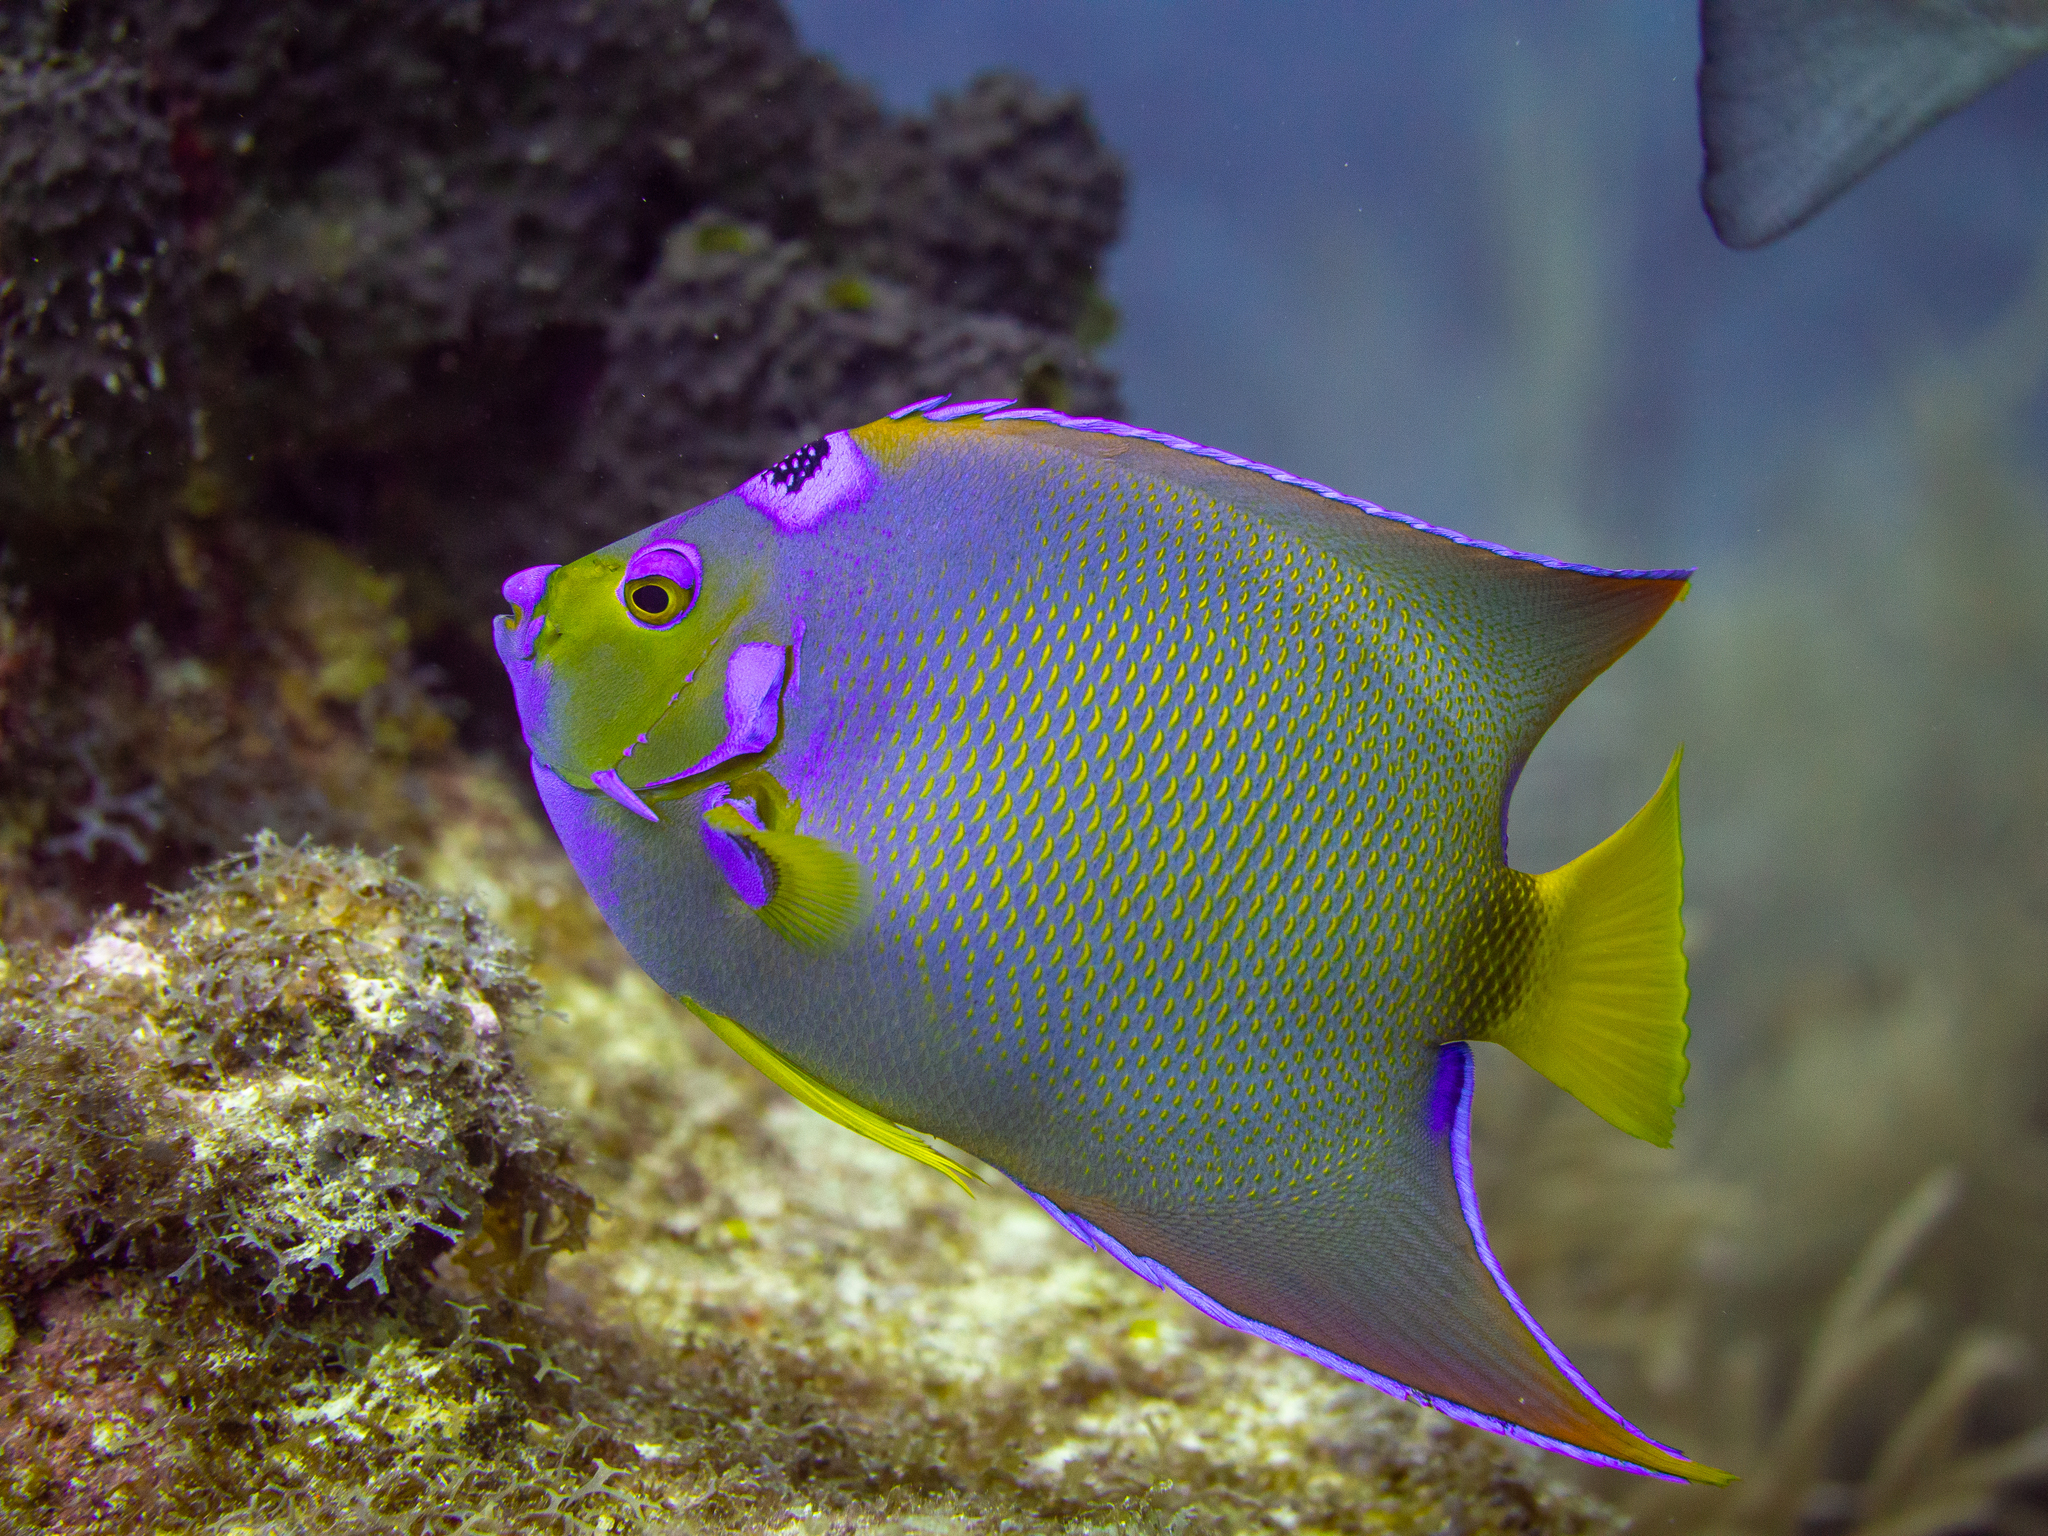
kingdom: Animalia
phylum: Chordata
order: Perciformes
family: Pomacanthidae
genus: Holacanthus
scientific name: Holacanthus ciliaris
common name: Queen angelfish
